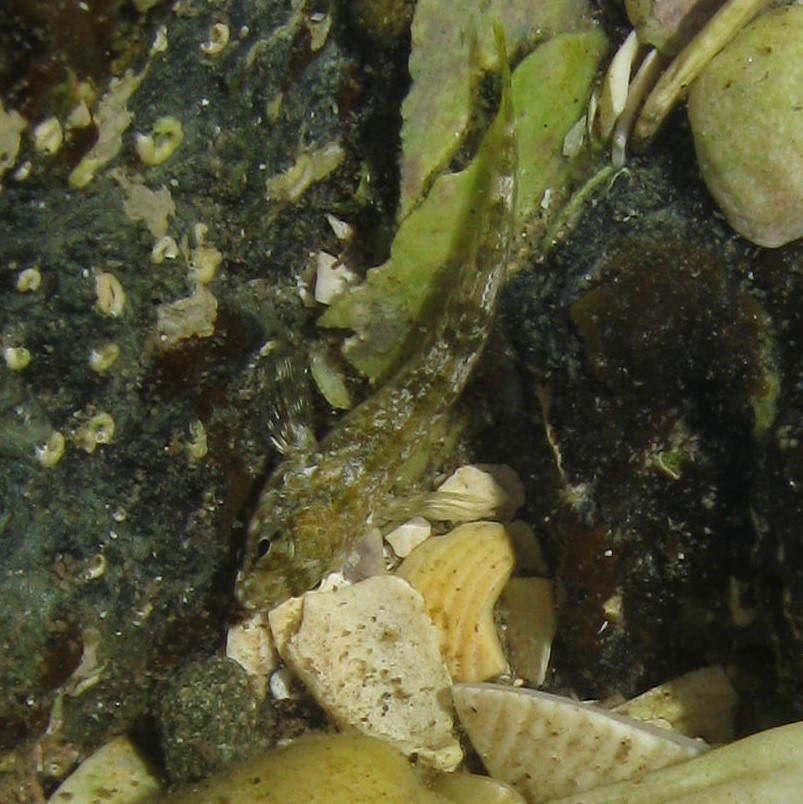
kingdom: Animalia
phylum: Chordata
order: Perciformes
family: Tripterygiidae
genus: Bellapiscis
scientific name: Bellapiscis medius
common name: Twister
